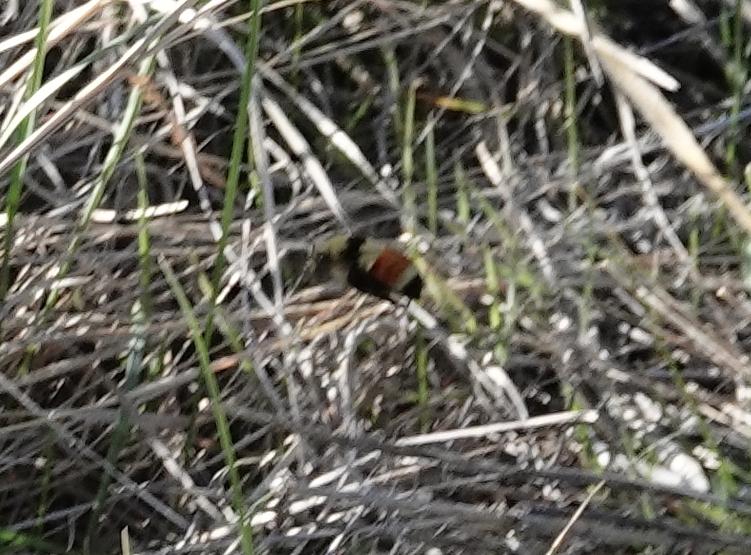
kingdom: Animalia
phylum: Arthropoda
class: Insecta
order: Hymenoptera
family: Apidae
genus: Bombus
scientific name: Bombus huntii
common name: Hunt bumble bee
